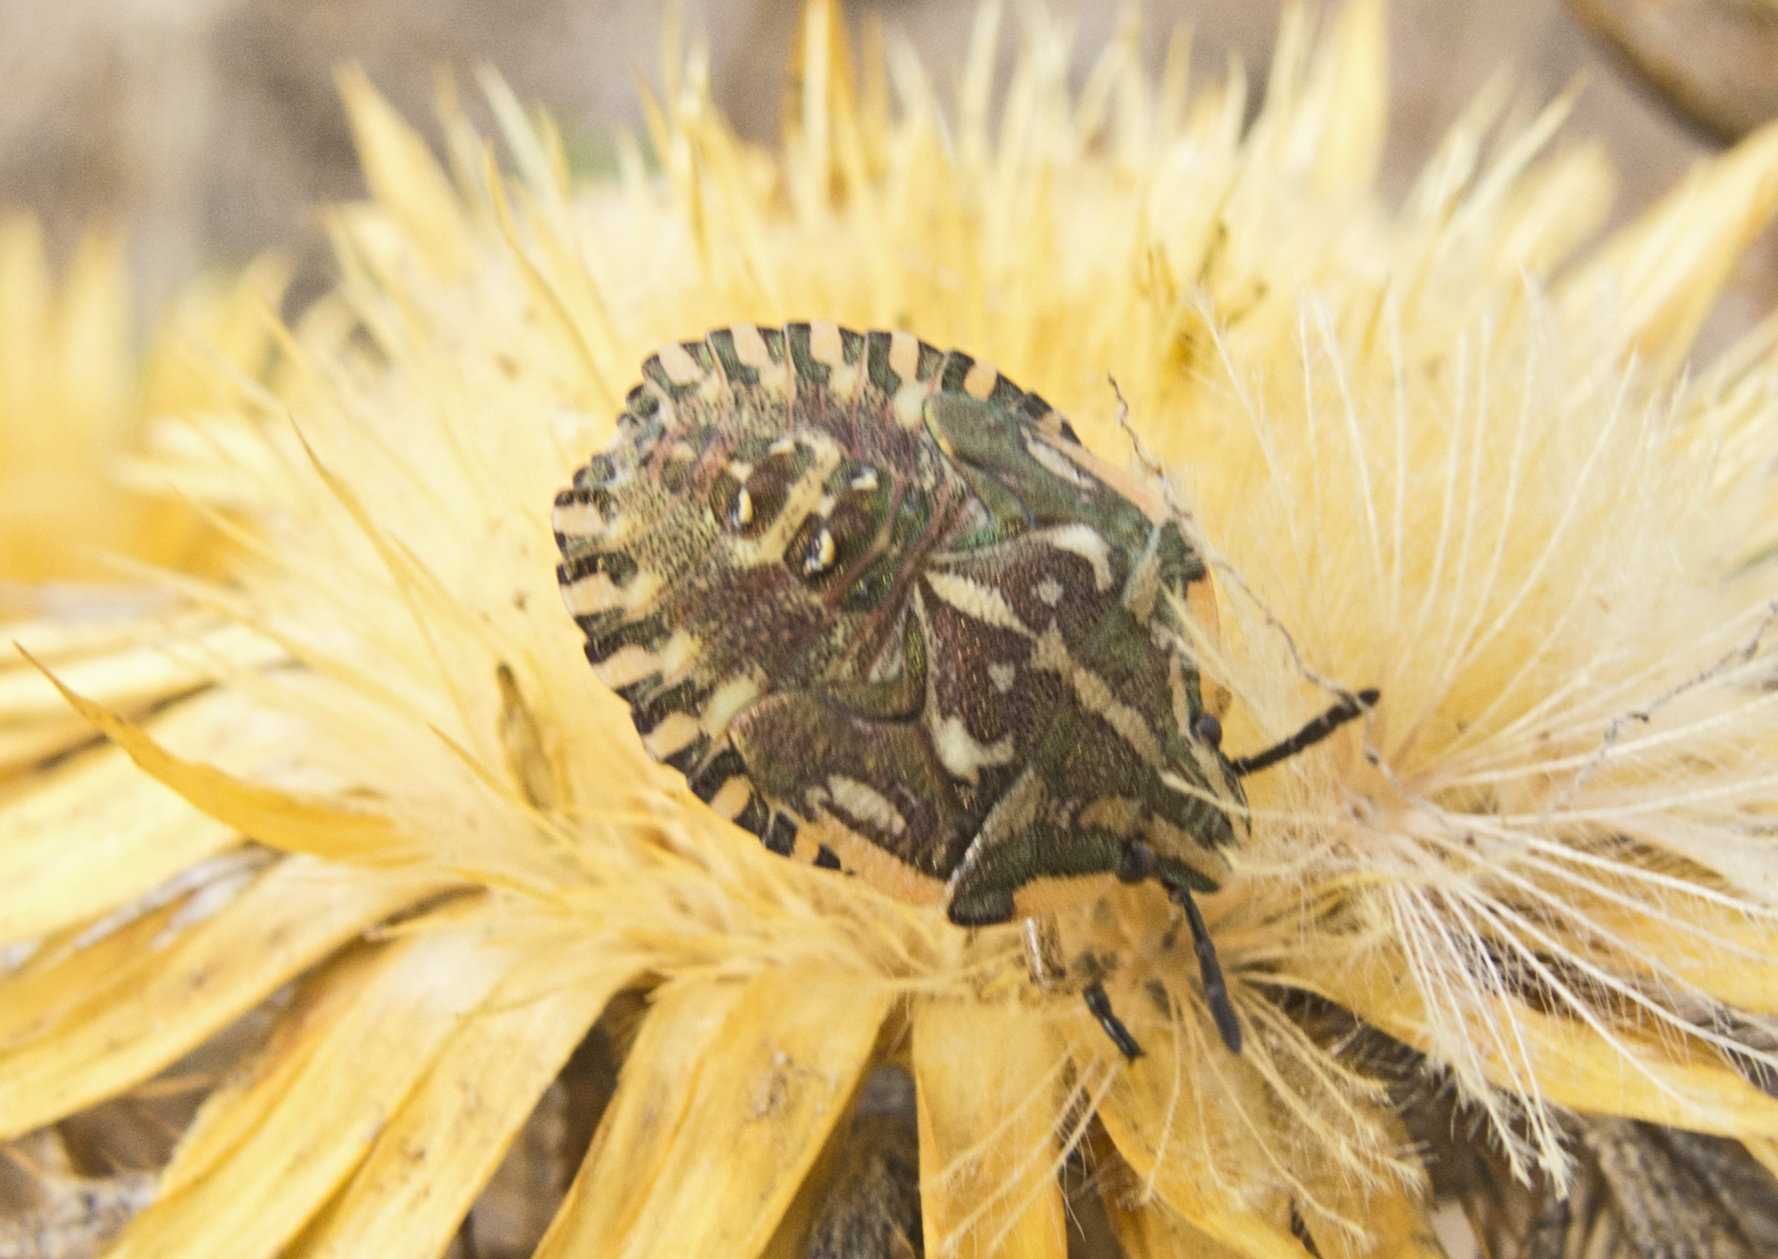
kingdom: Animalia
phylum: Arthropoda
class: Insecta
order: Hemiptera
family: Pentatomidae
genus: Carpocoris
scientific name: Carpocoris mediterraneus
